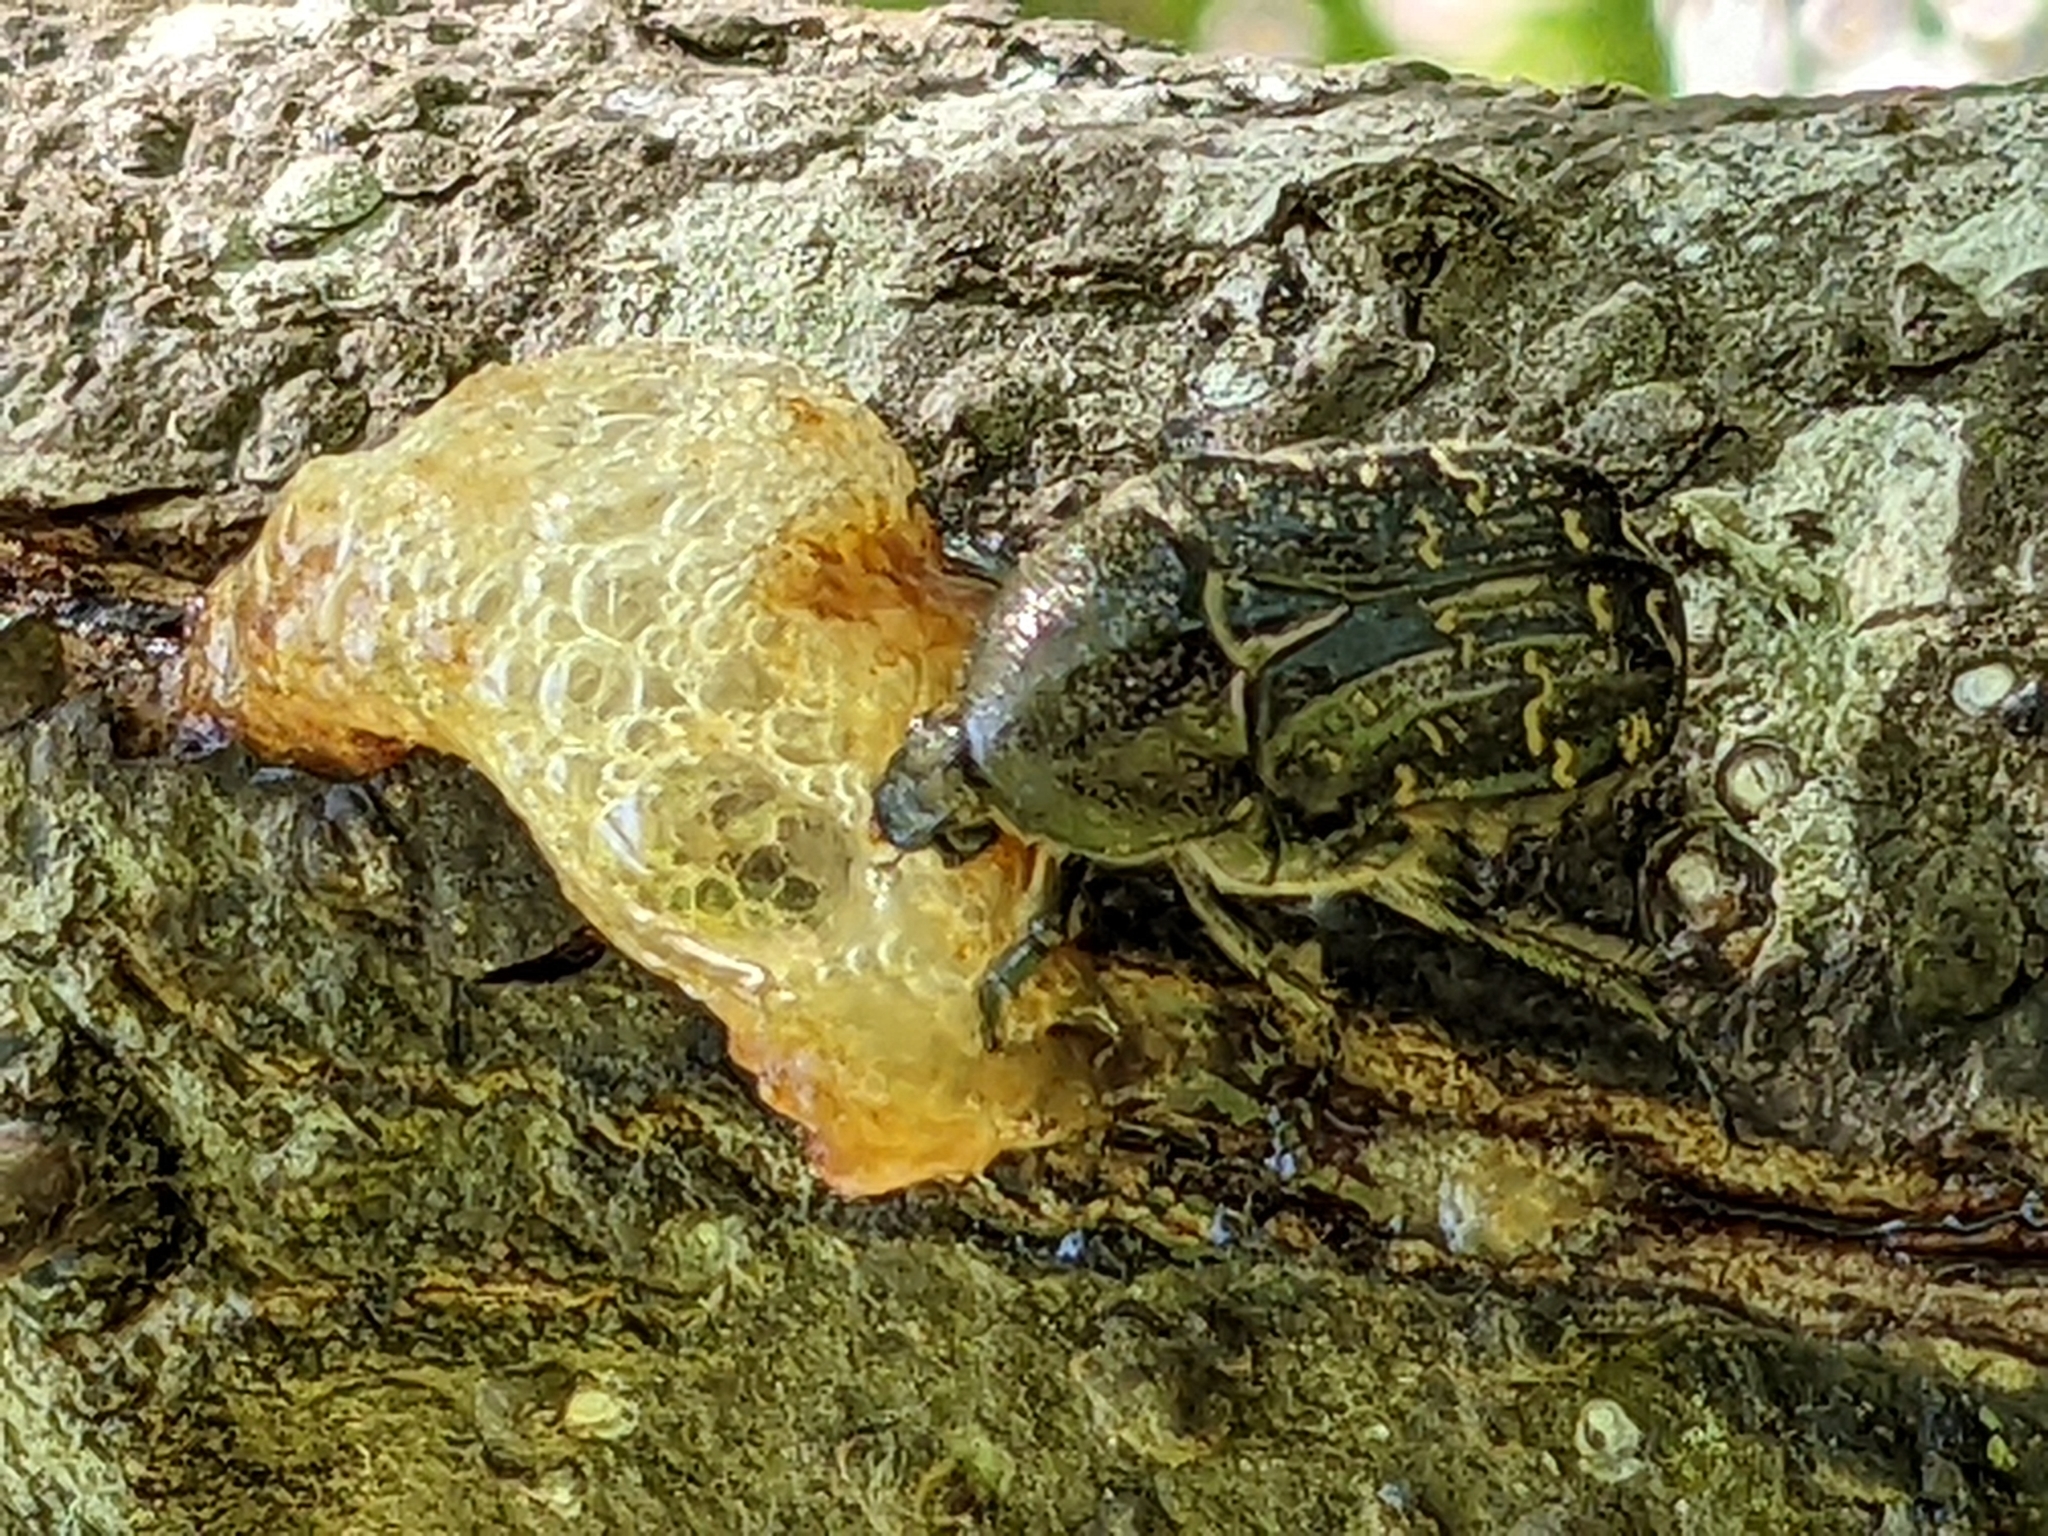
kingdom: Animalia
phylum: Arthropoda
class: Insecta
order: Coleoptera
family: Scarabaeidae
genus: Euphoria
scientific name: Euphoria sepulcralis
